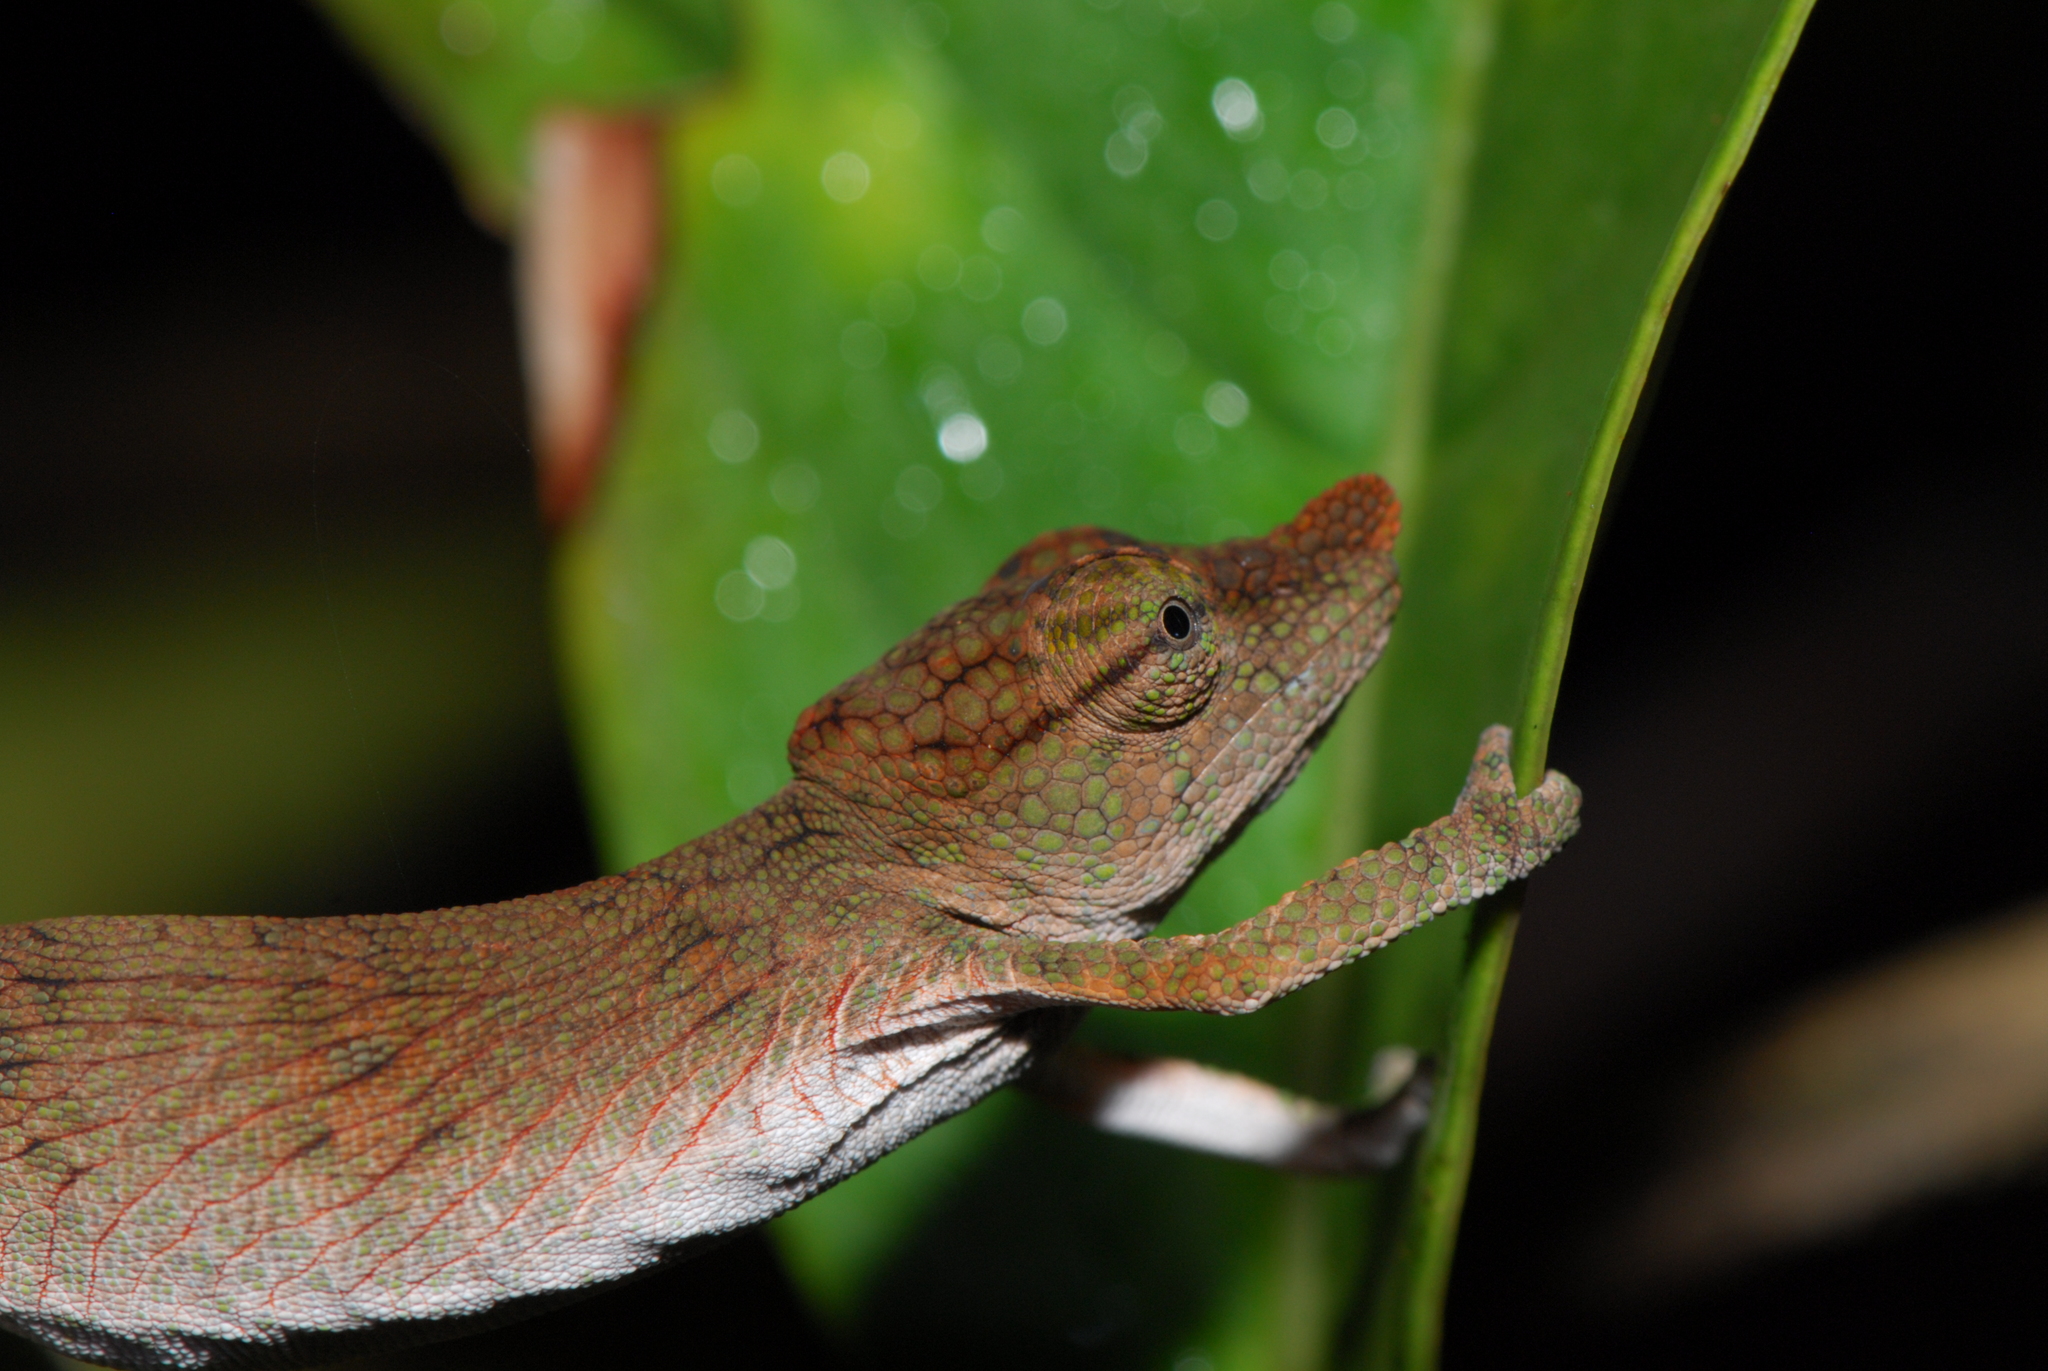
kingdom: Animalia
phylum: Chordata
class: Squamata
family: Chamaeleonidae
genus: Calumma
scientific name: Calumma emelinae
